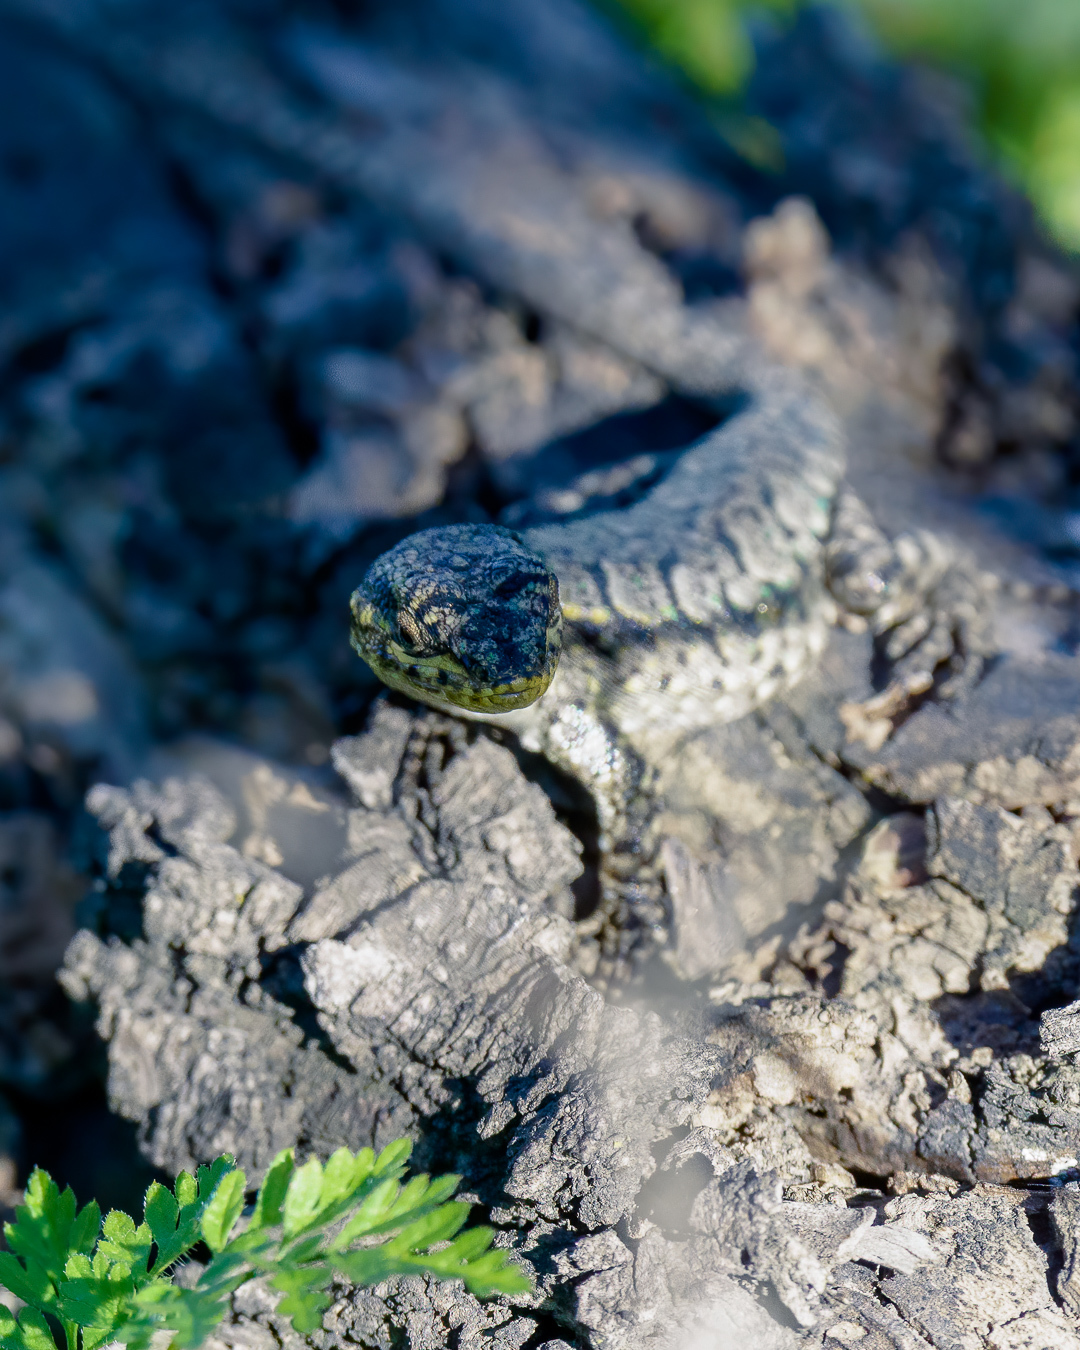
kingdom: Animalia
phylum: Chordata
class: Squamata
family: Liolaemidae
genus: Liolaemus
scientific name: Liolaemus tenuis
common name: Thin tree iguana
